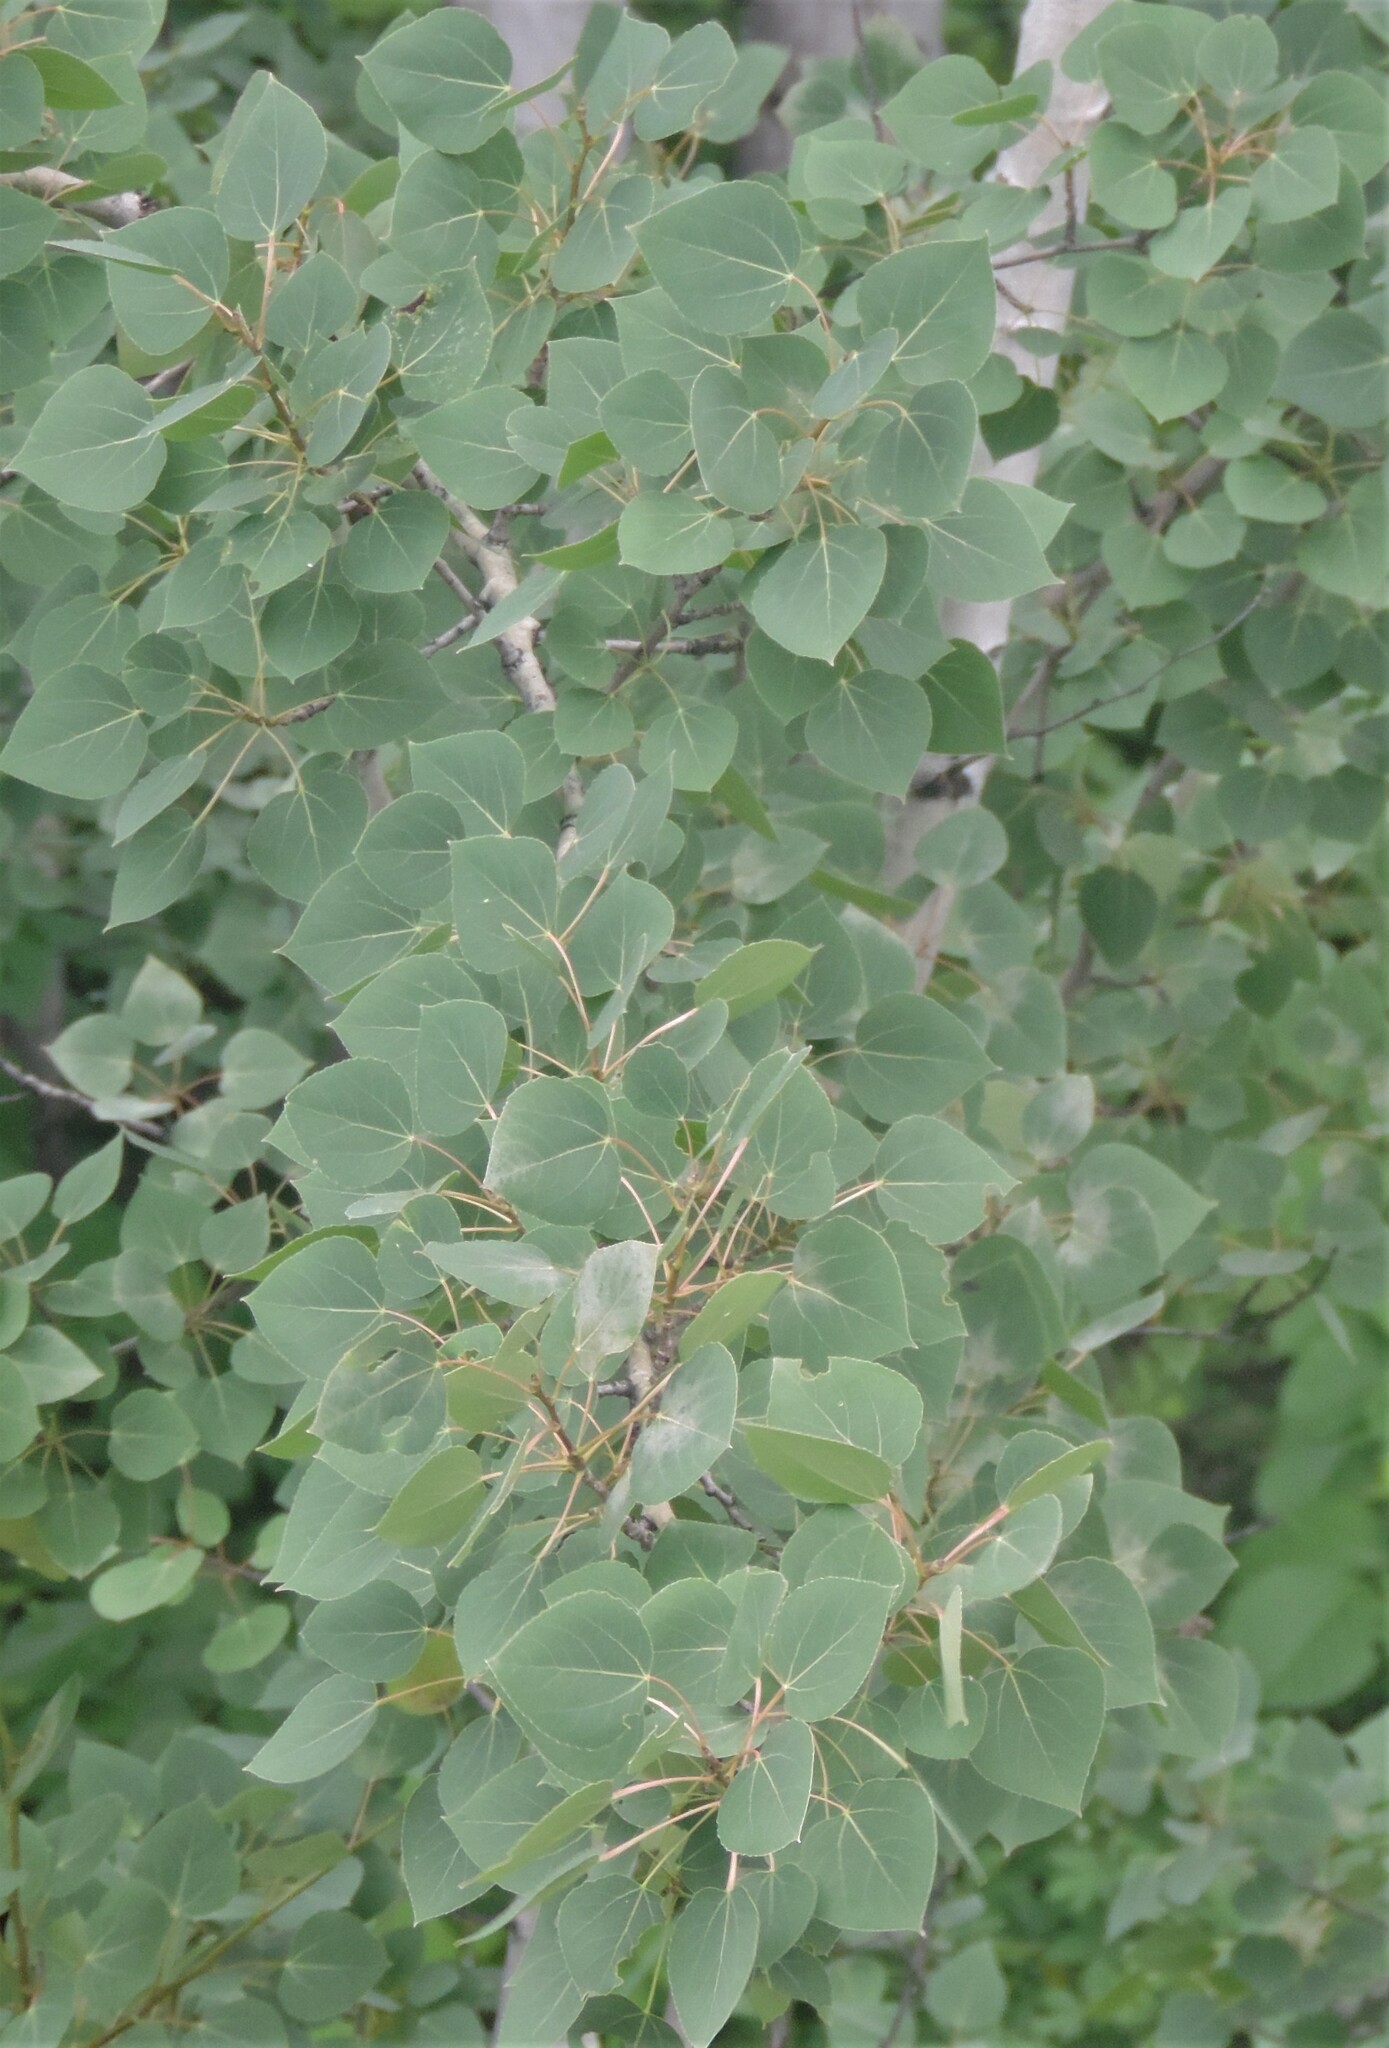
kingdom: Plantae
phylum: Tracheophyta
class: Magnoliopsida
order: Malpighiales
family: Salicaceae
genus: Populus
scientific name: Populus tremuloides
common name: Quaking aspen
